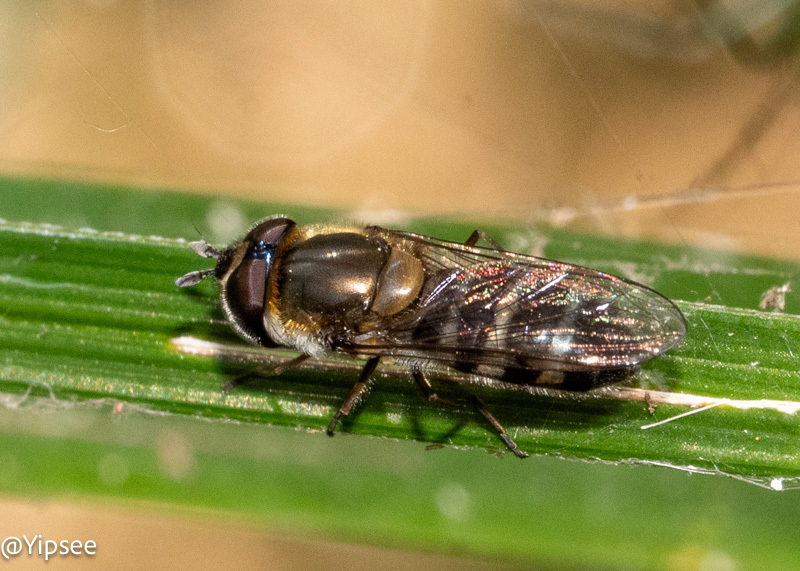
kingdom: Animalia
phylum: Arthropoda
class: Insecta
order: Diptera
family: Syrphidae
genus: Betasyrphus
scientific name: Betasyrphus serarius
